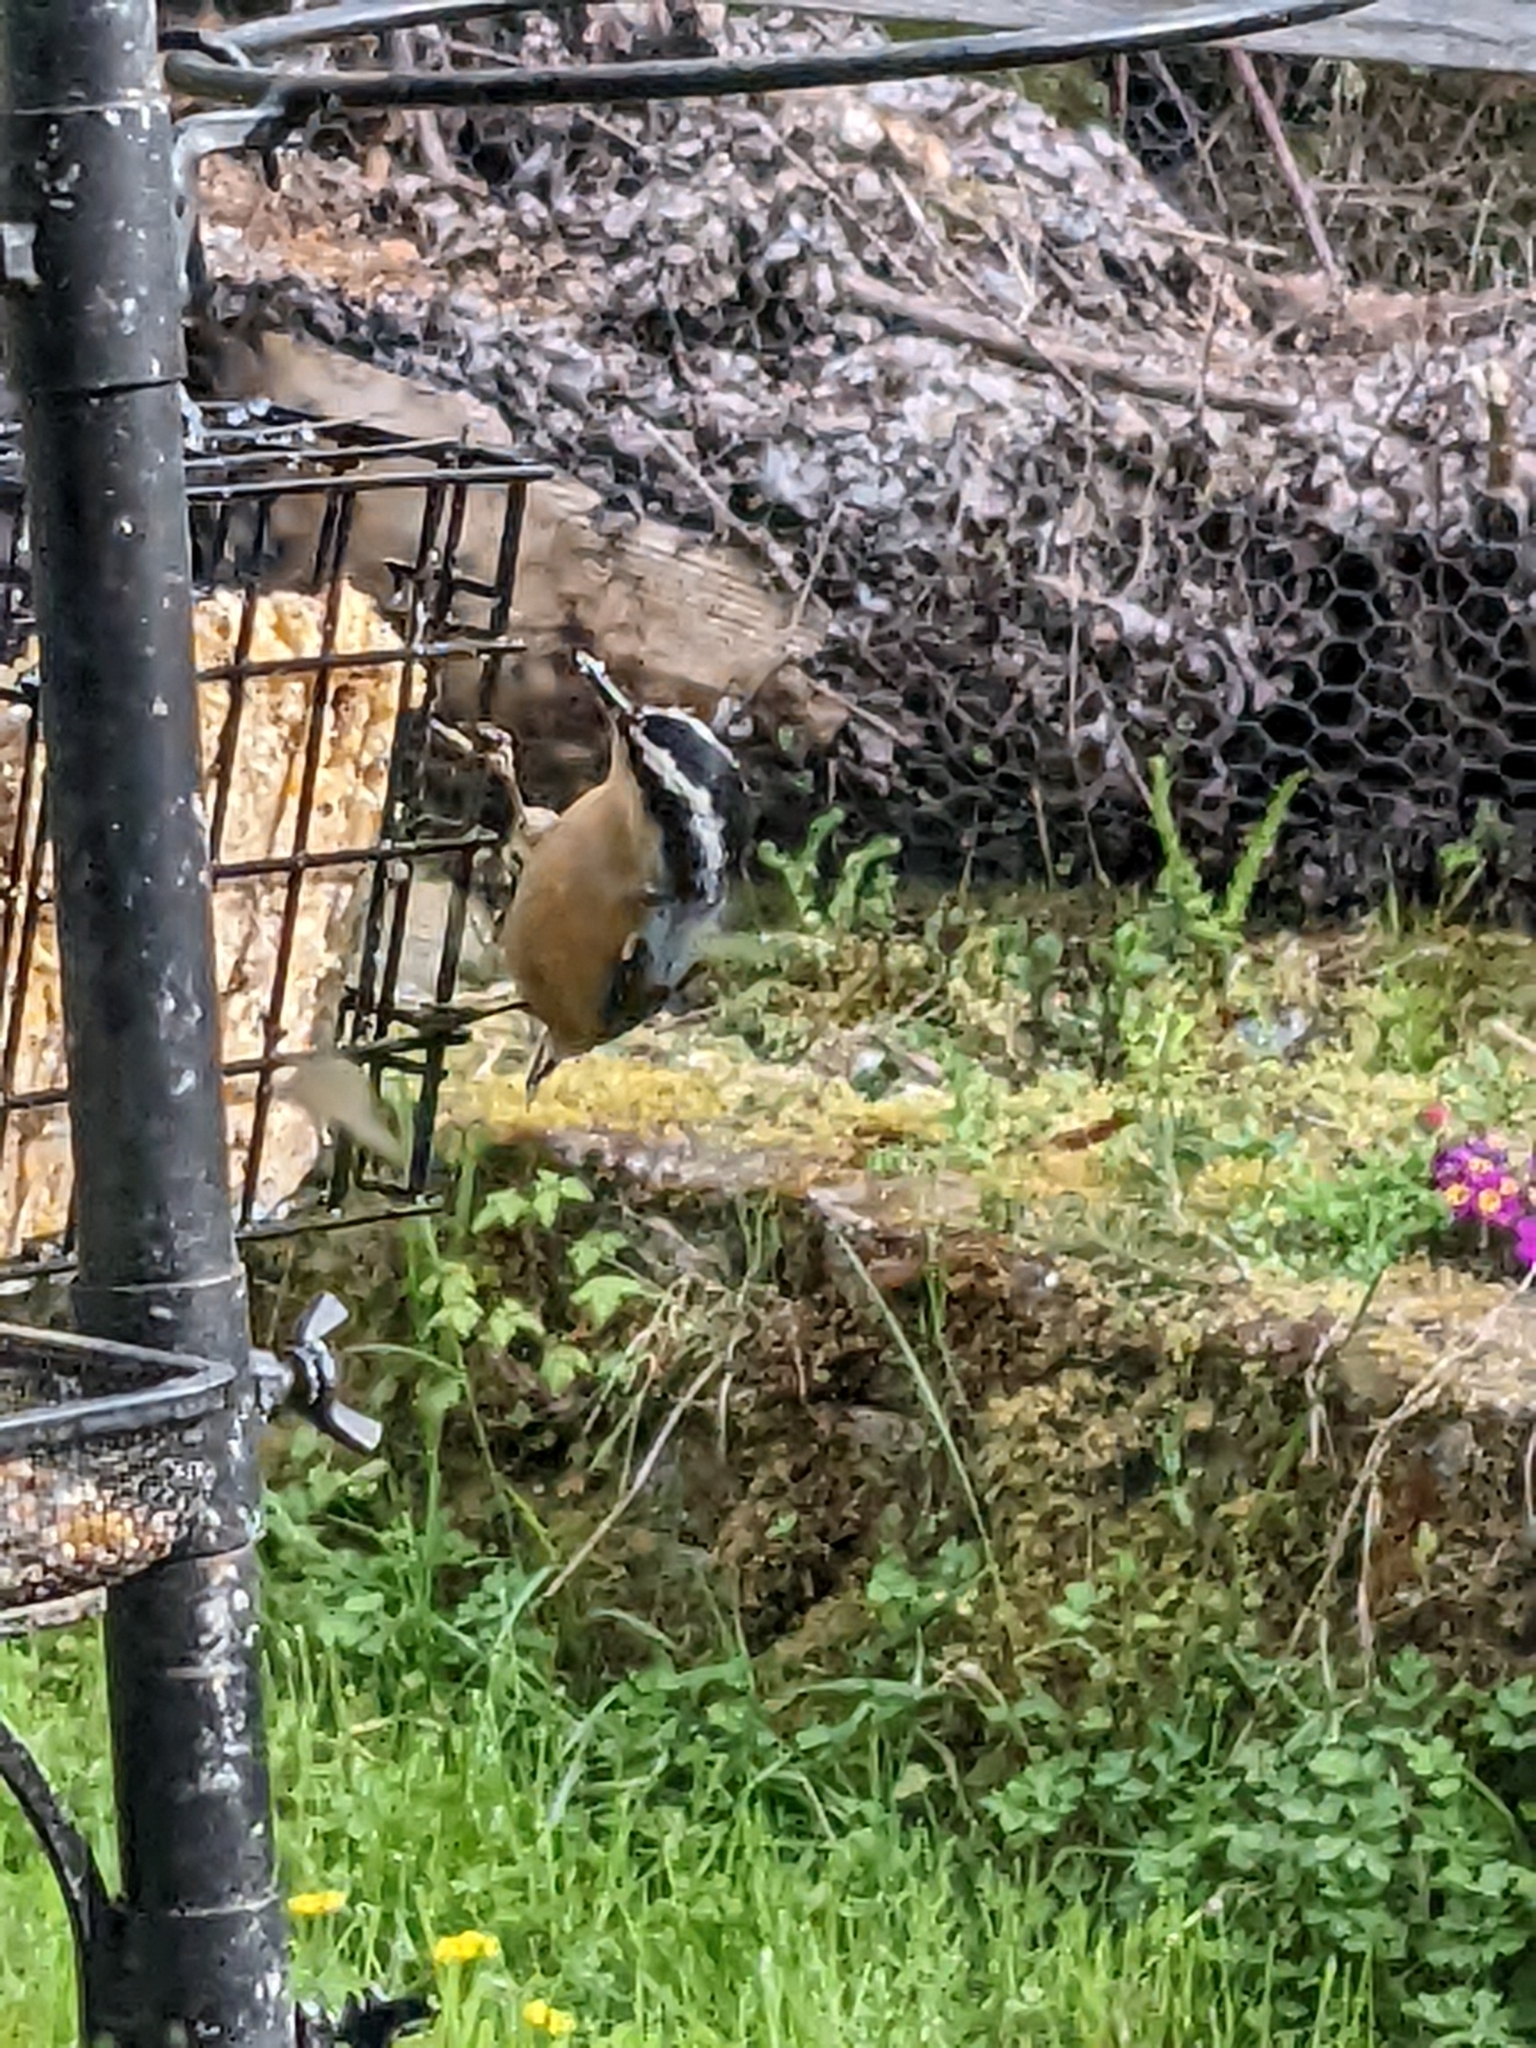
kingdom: Animalia
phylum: Chordata
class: Aves
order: Passeriformes
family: Sittidae
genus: Sitta
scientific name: Sitta canadensis
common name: Red-breasted nuthatch
